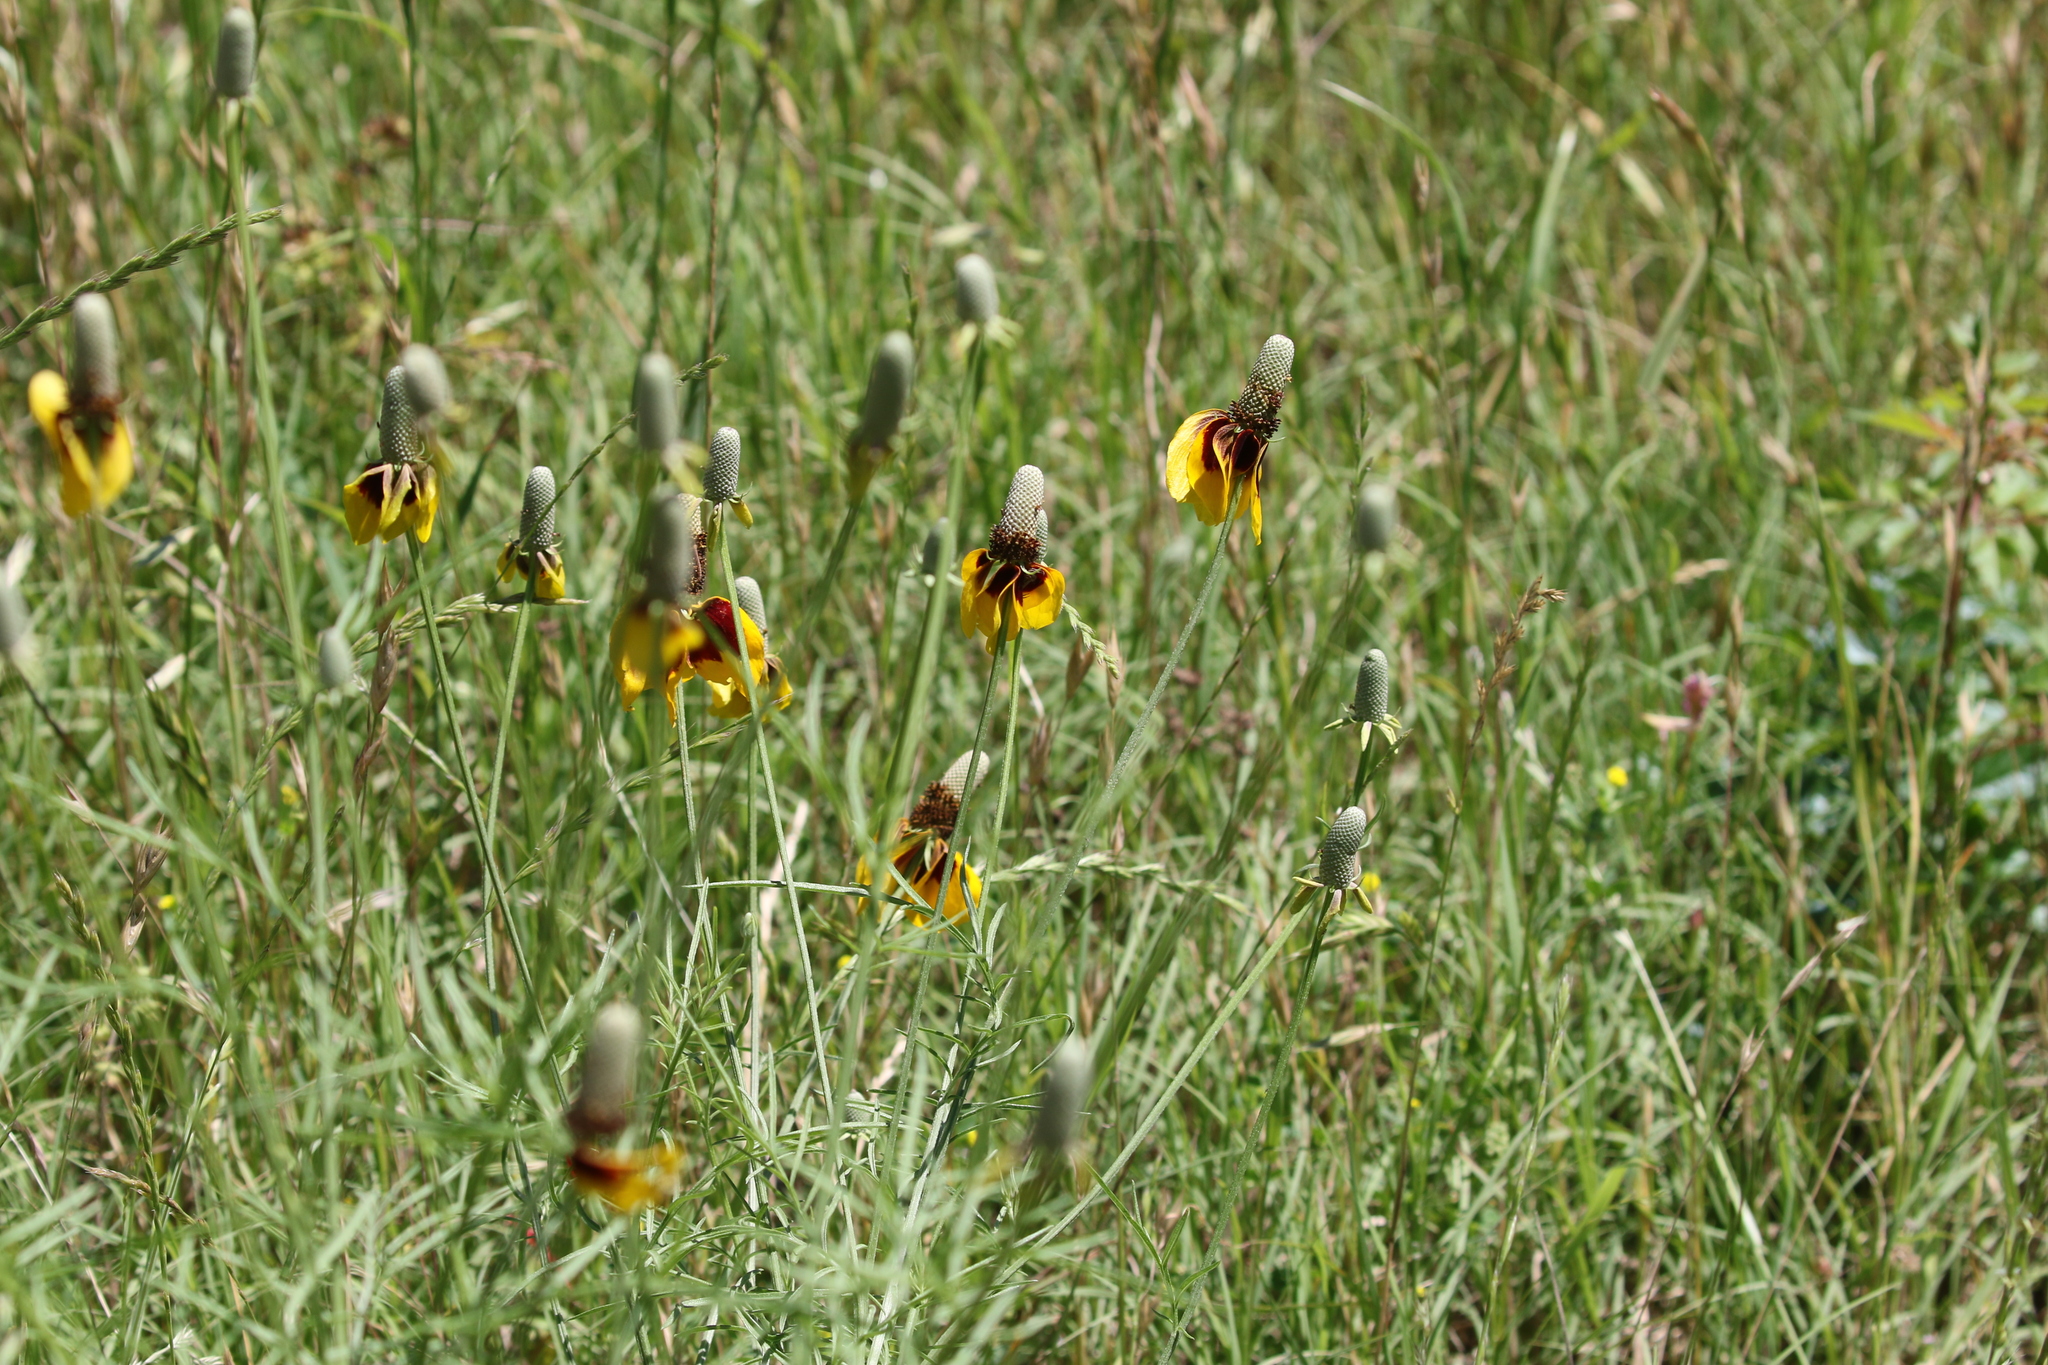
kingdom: Plantae
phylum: Tracheophyta
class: Magnoliopsida
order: Asterales
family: Asteraceae
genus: Ratibida
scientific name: Ratibida columnifera
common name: Prairie coneflower
